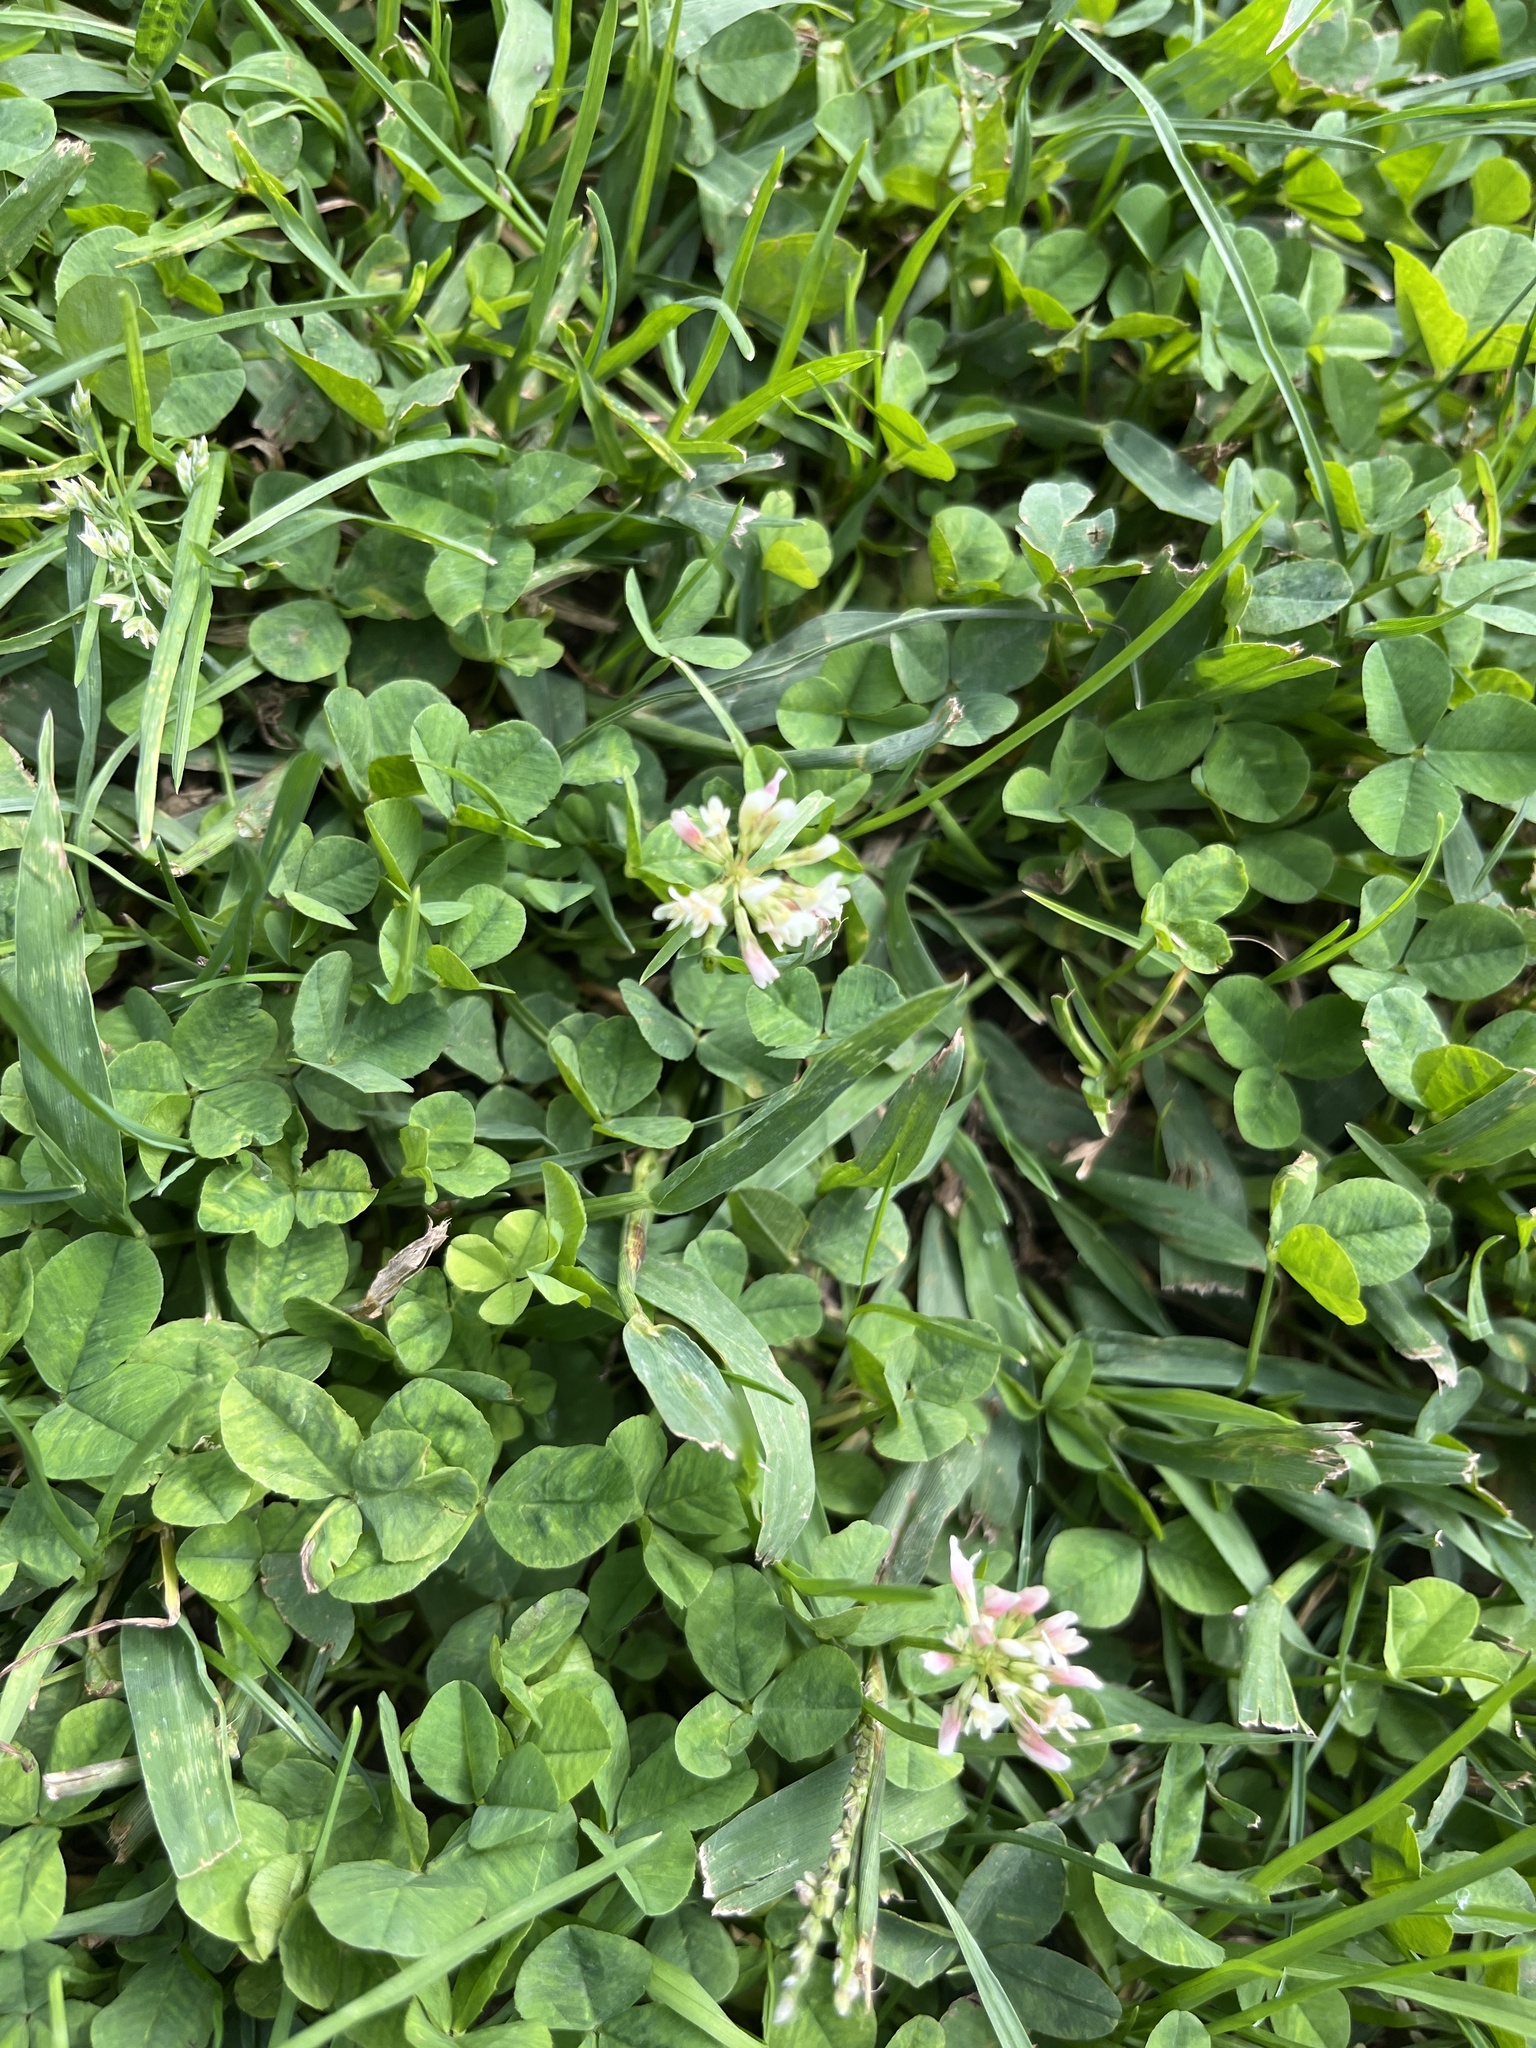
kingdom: Plantae
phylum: Tracheophyta
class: Magnoliopsida
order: Fabales
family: Fabaceae
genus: Trifolium
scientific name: Trifolium repens
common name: White clover
